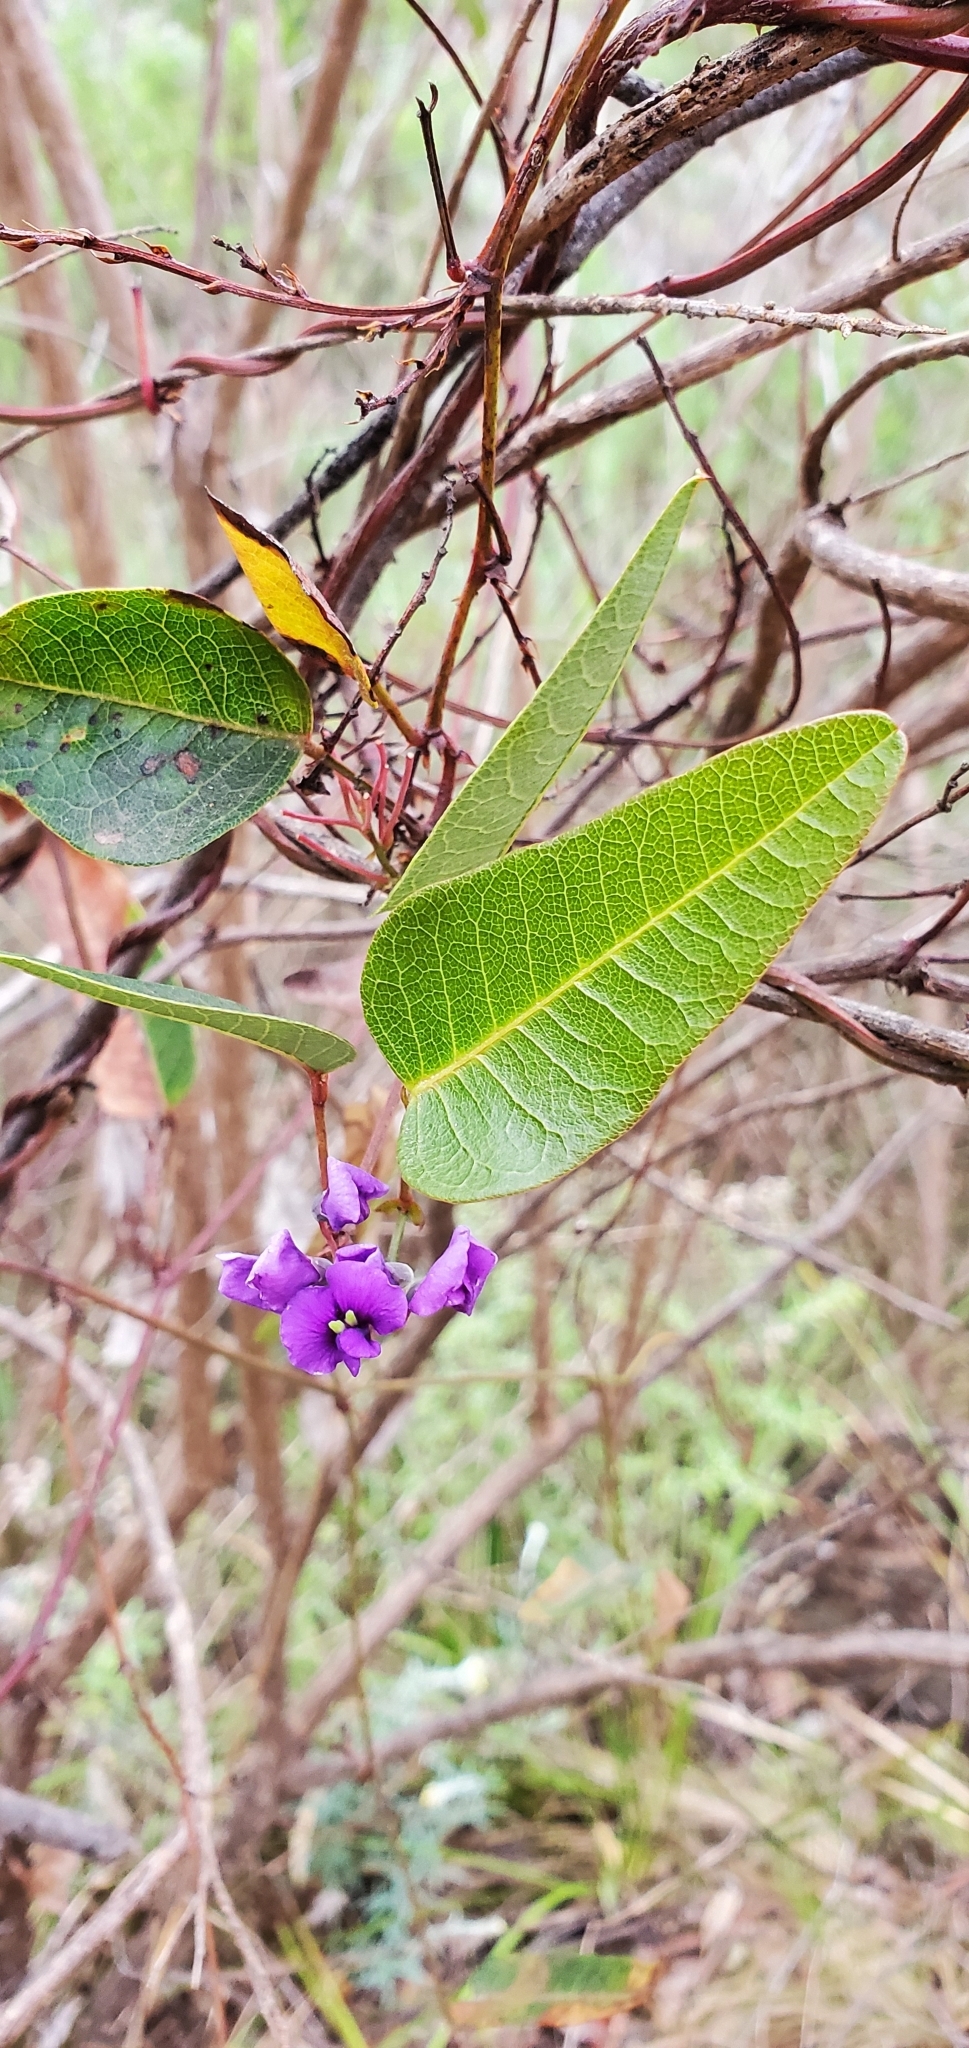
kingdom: Plantae
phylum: Tracheophyta
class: Magnoliopsida
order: Fabales
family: Fabaceae
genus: Hardenbergia
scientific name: Hardenbergia violacea
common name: Coral-pea
